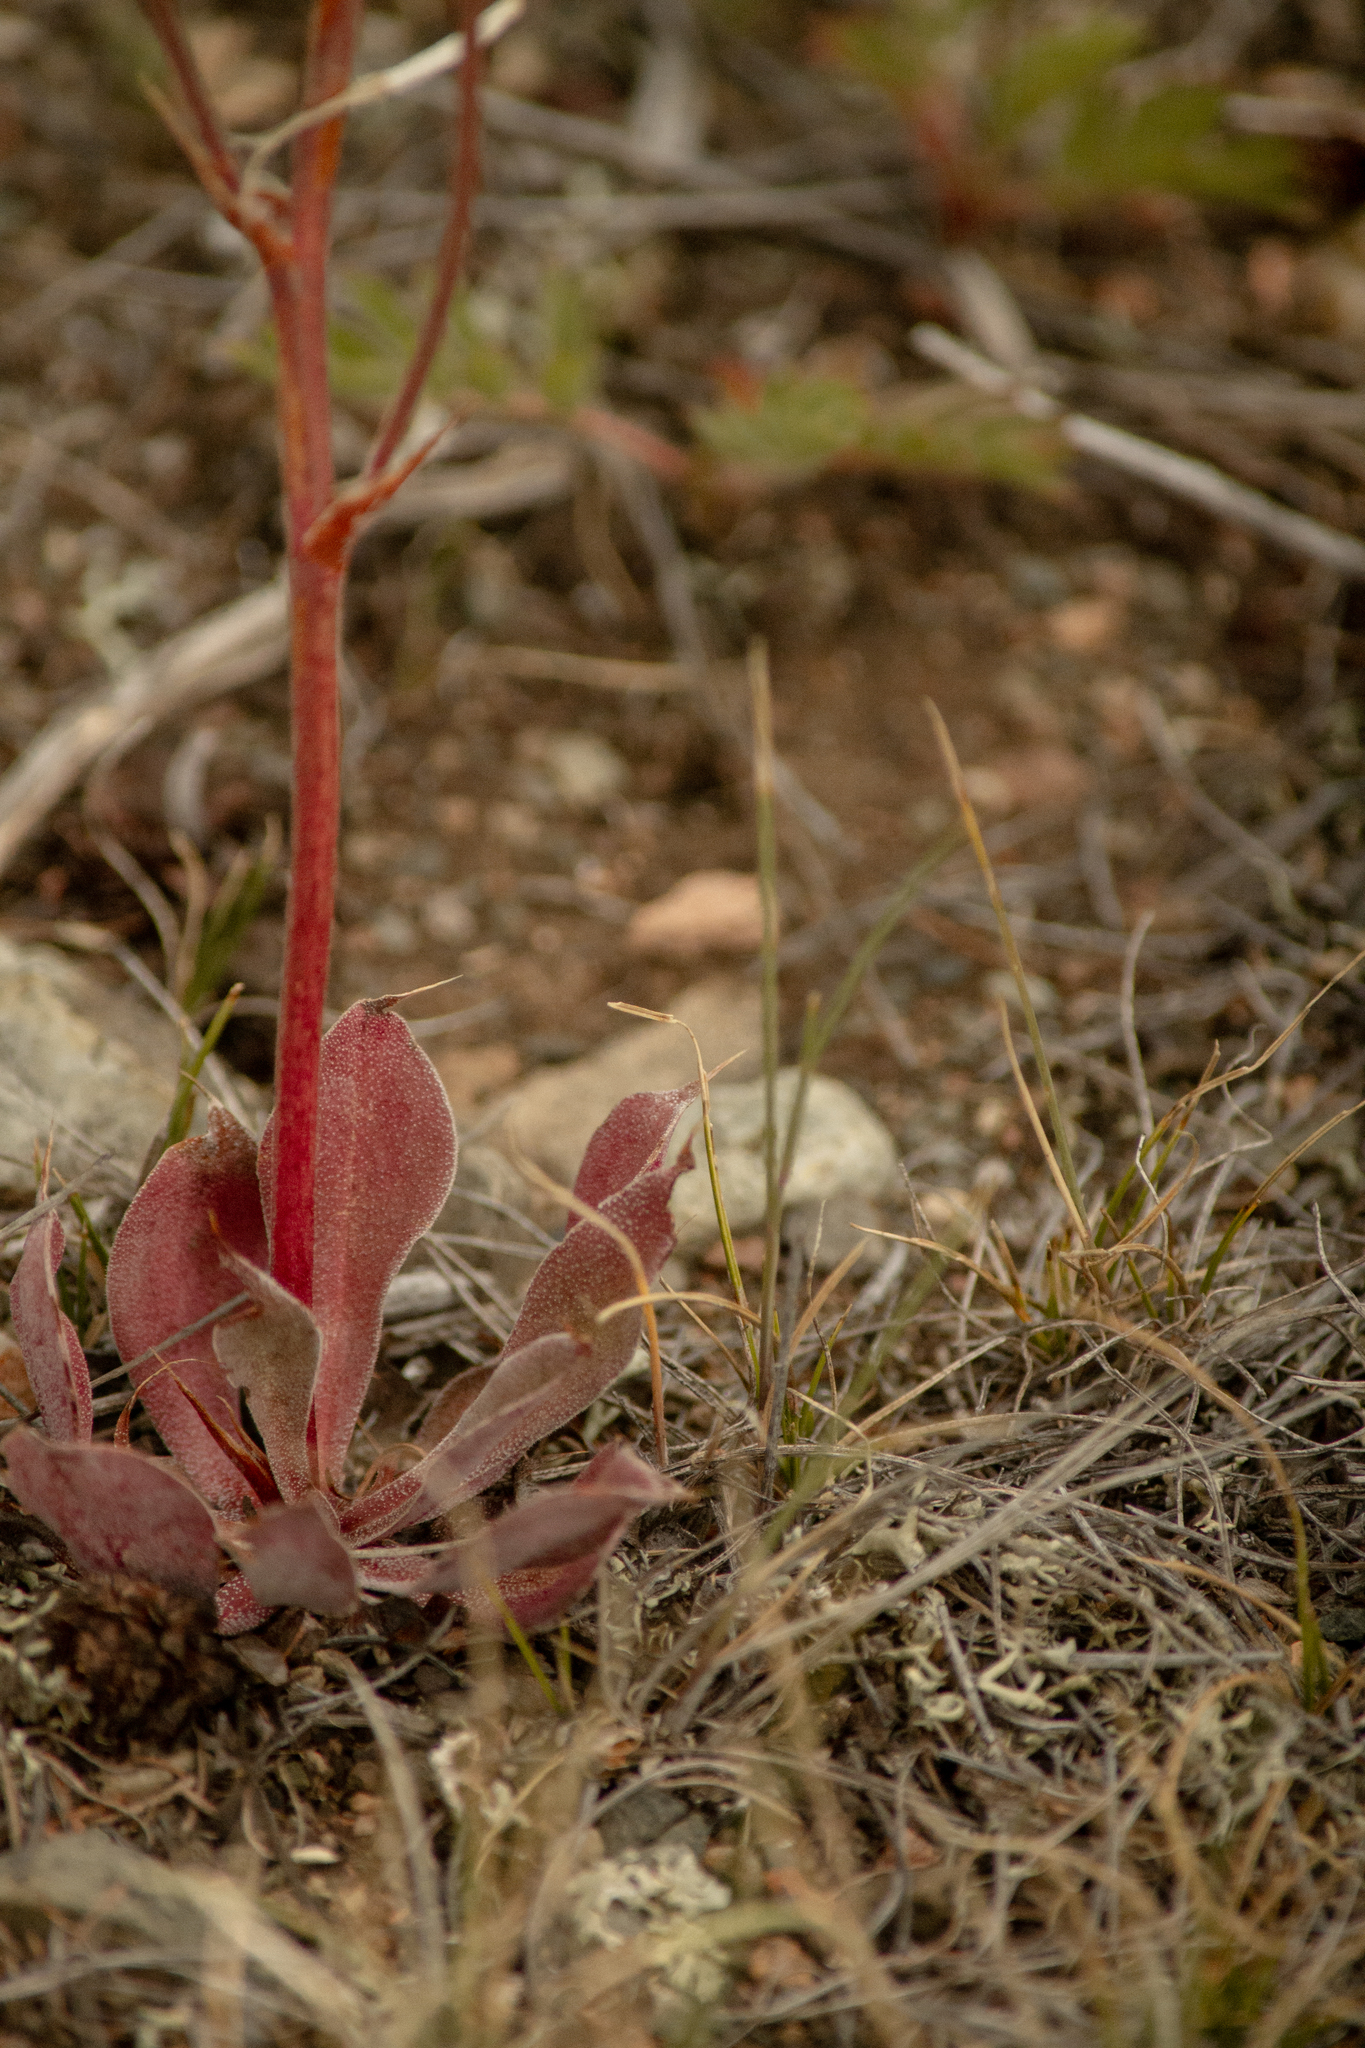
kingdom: Plantae
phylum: Tracheophyta
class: Magnoliopsida
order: Caryophyllales
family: Plumbaginaceae
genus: Goniolimon
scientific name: Goniolimon speciosum
